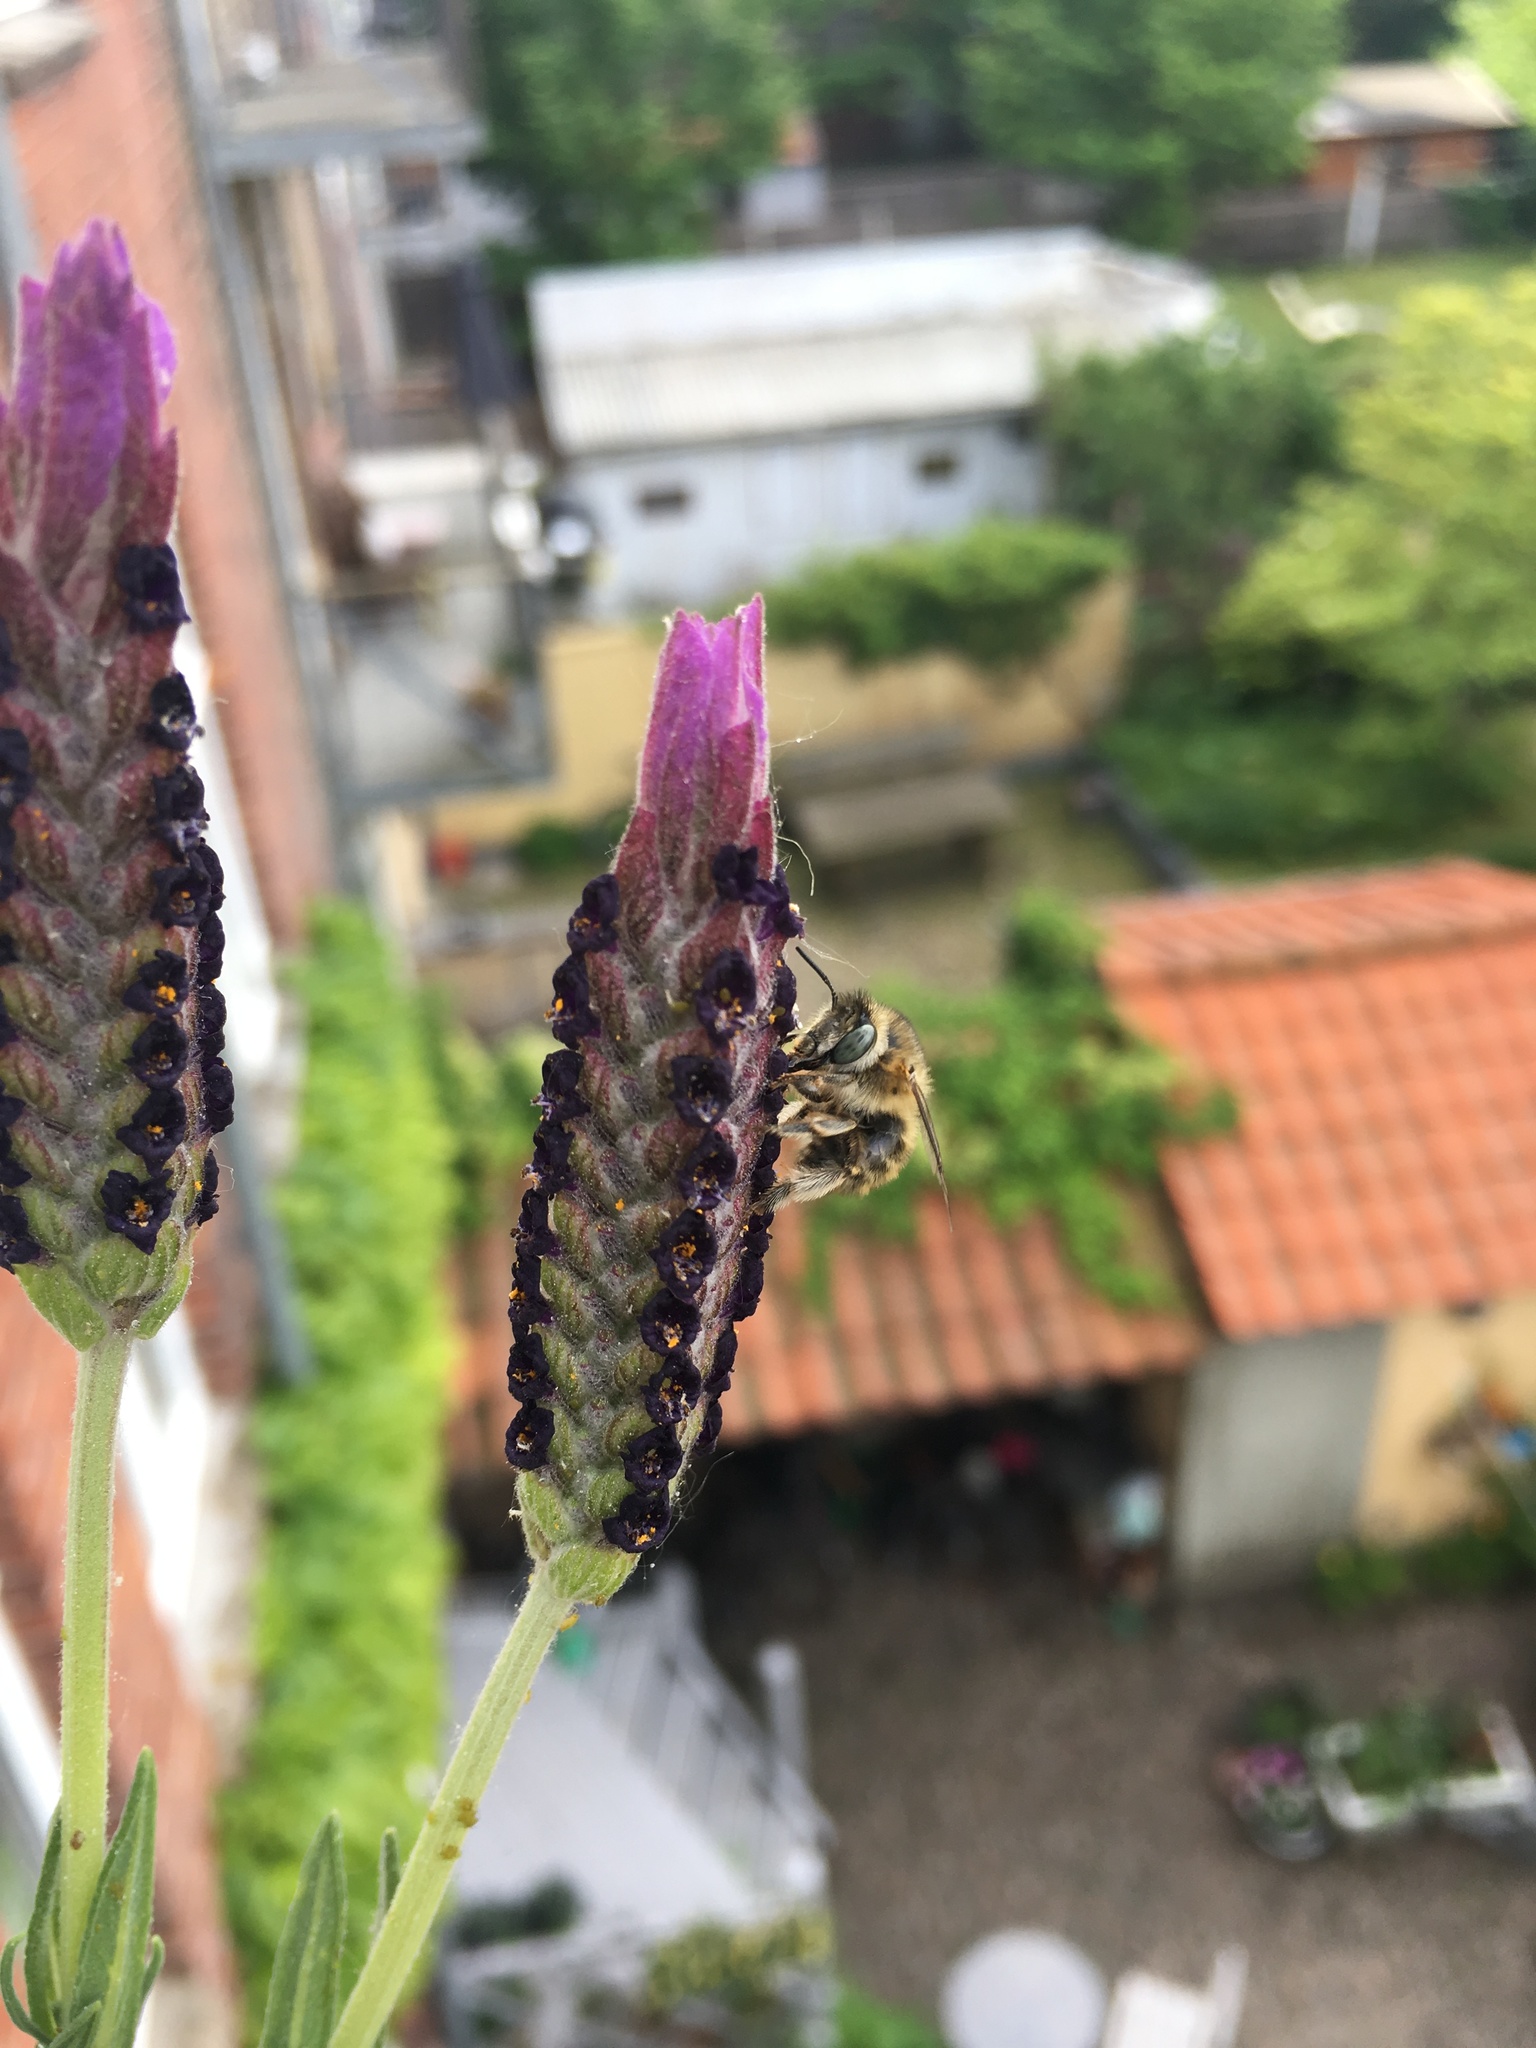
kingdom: Animalia
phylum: Arthropoda
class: Insecta
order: Hymenoptera
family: Apidae
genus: Anthophora
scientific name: Anthophora quadrimaculata
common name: Four-banded flower bee
